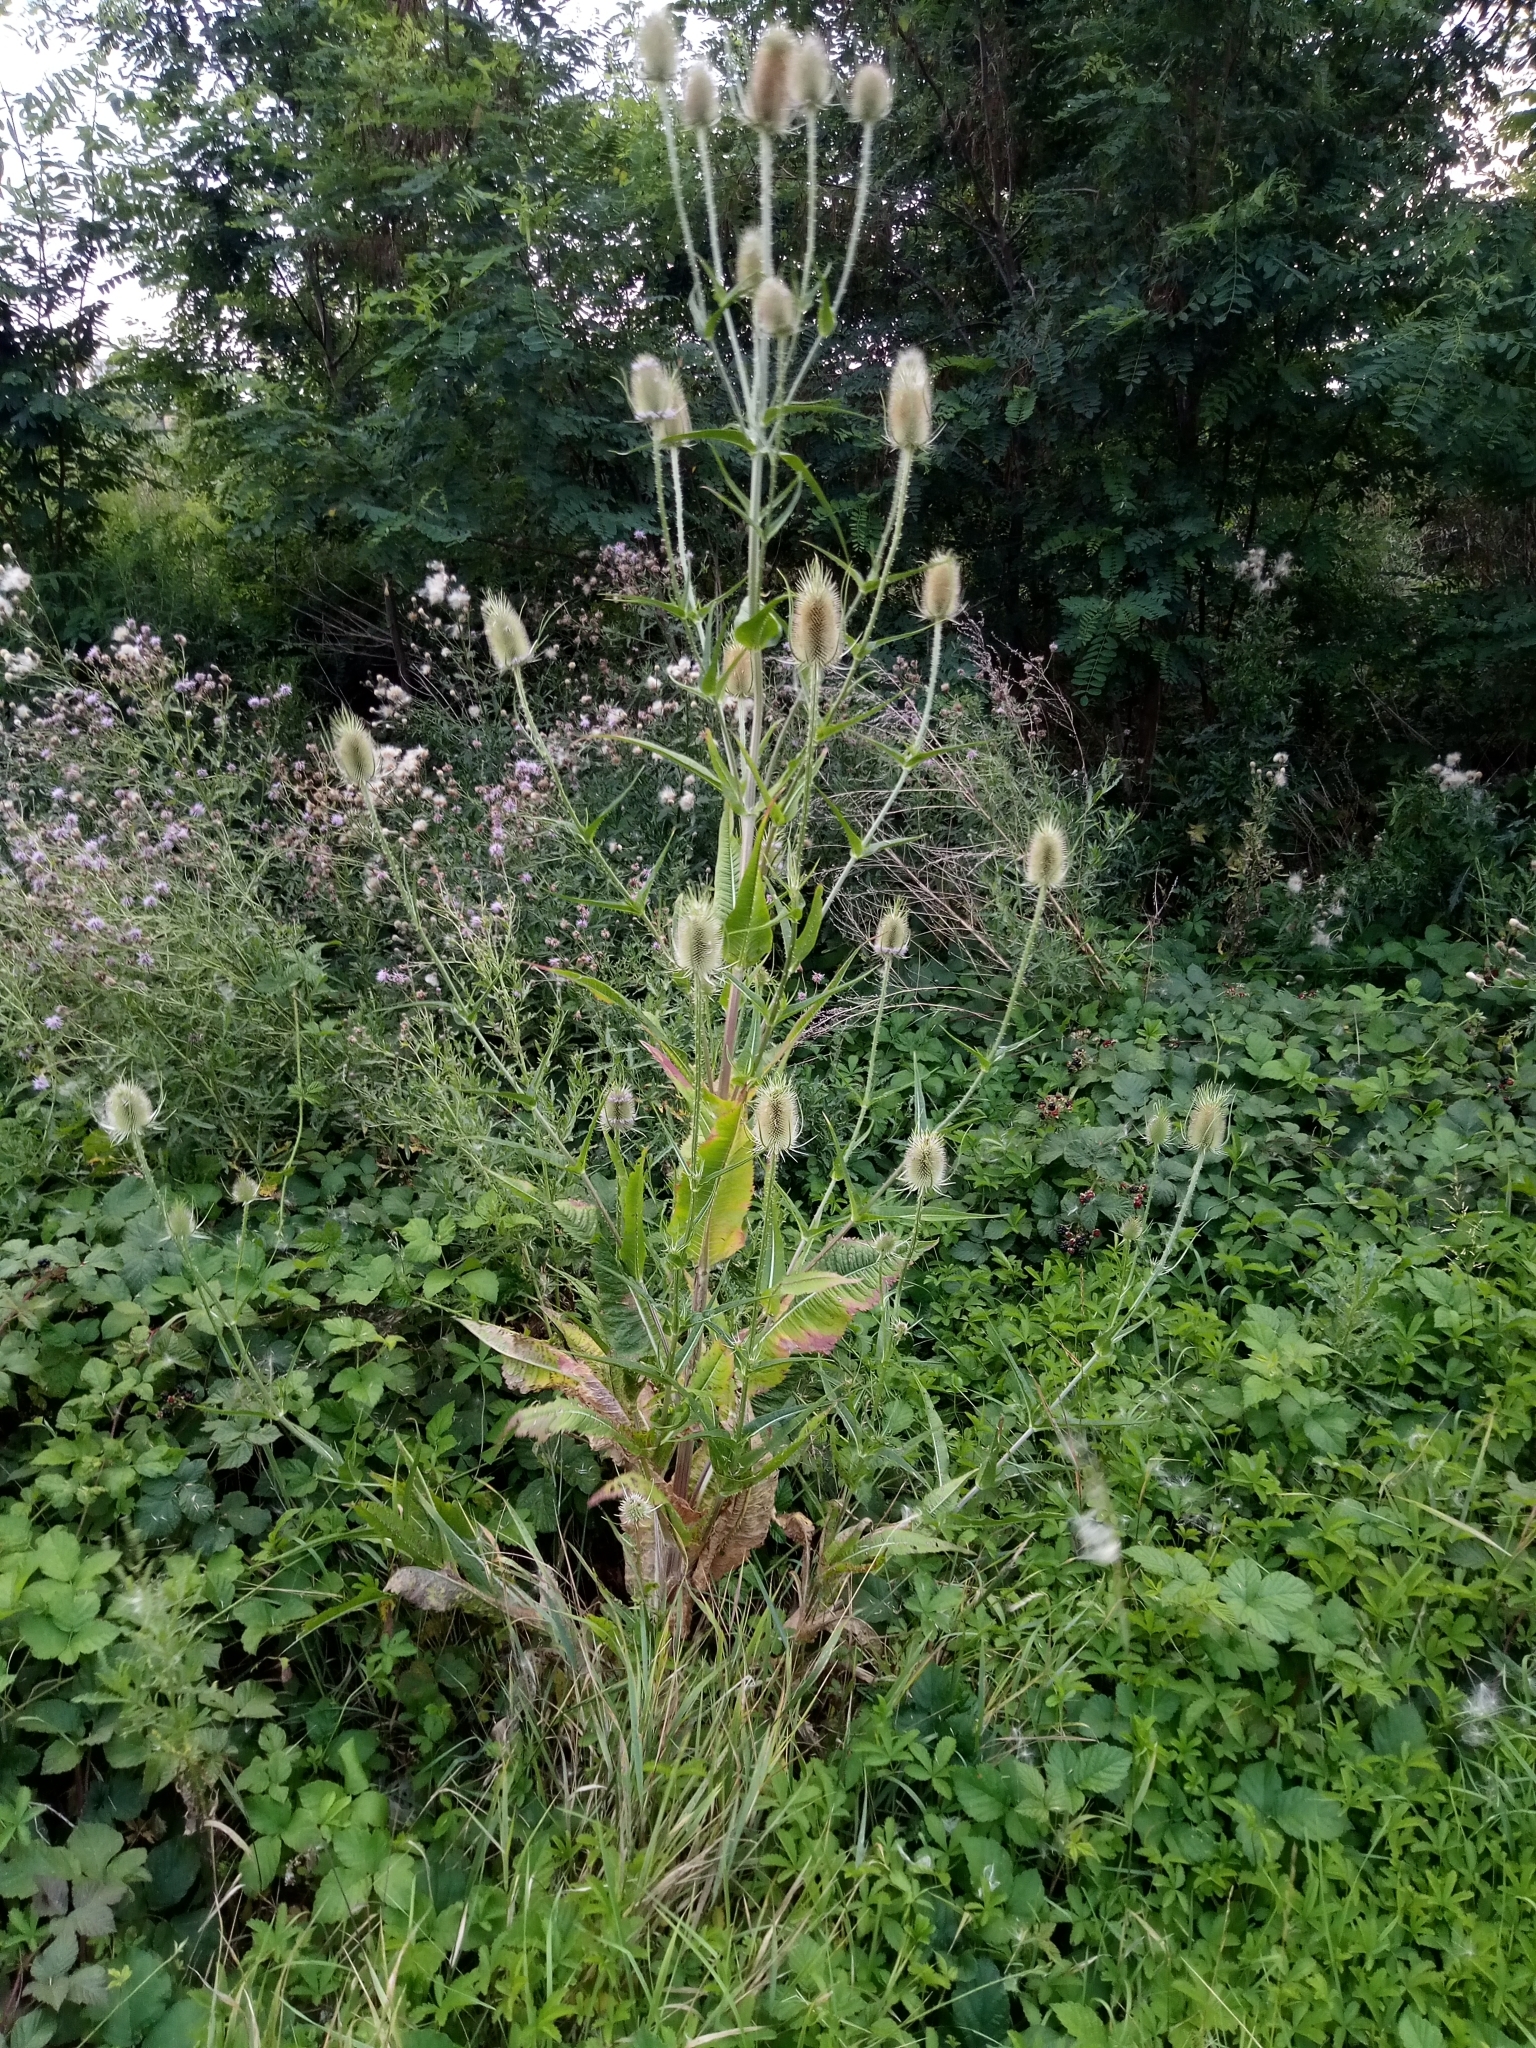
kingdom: Plantae
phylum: Tracheophyta
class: Magnoliopsida
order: Dipsacales
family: Caprifoliaceae
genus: Dipsacus
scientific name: Dipsacus fullonum
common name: Teasel
